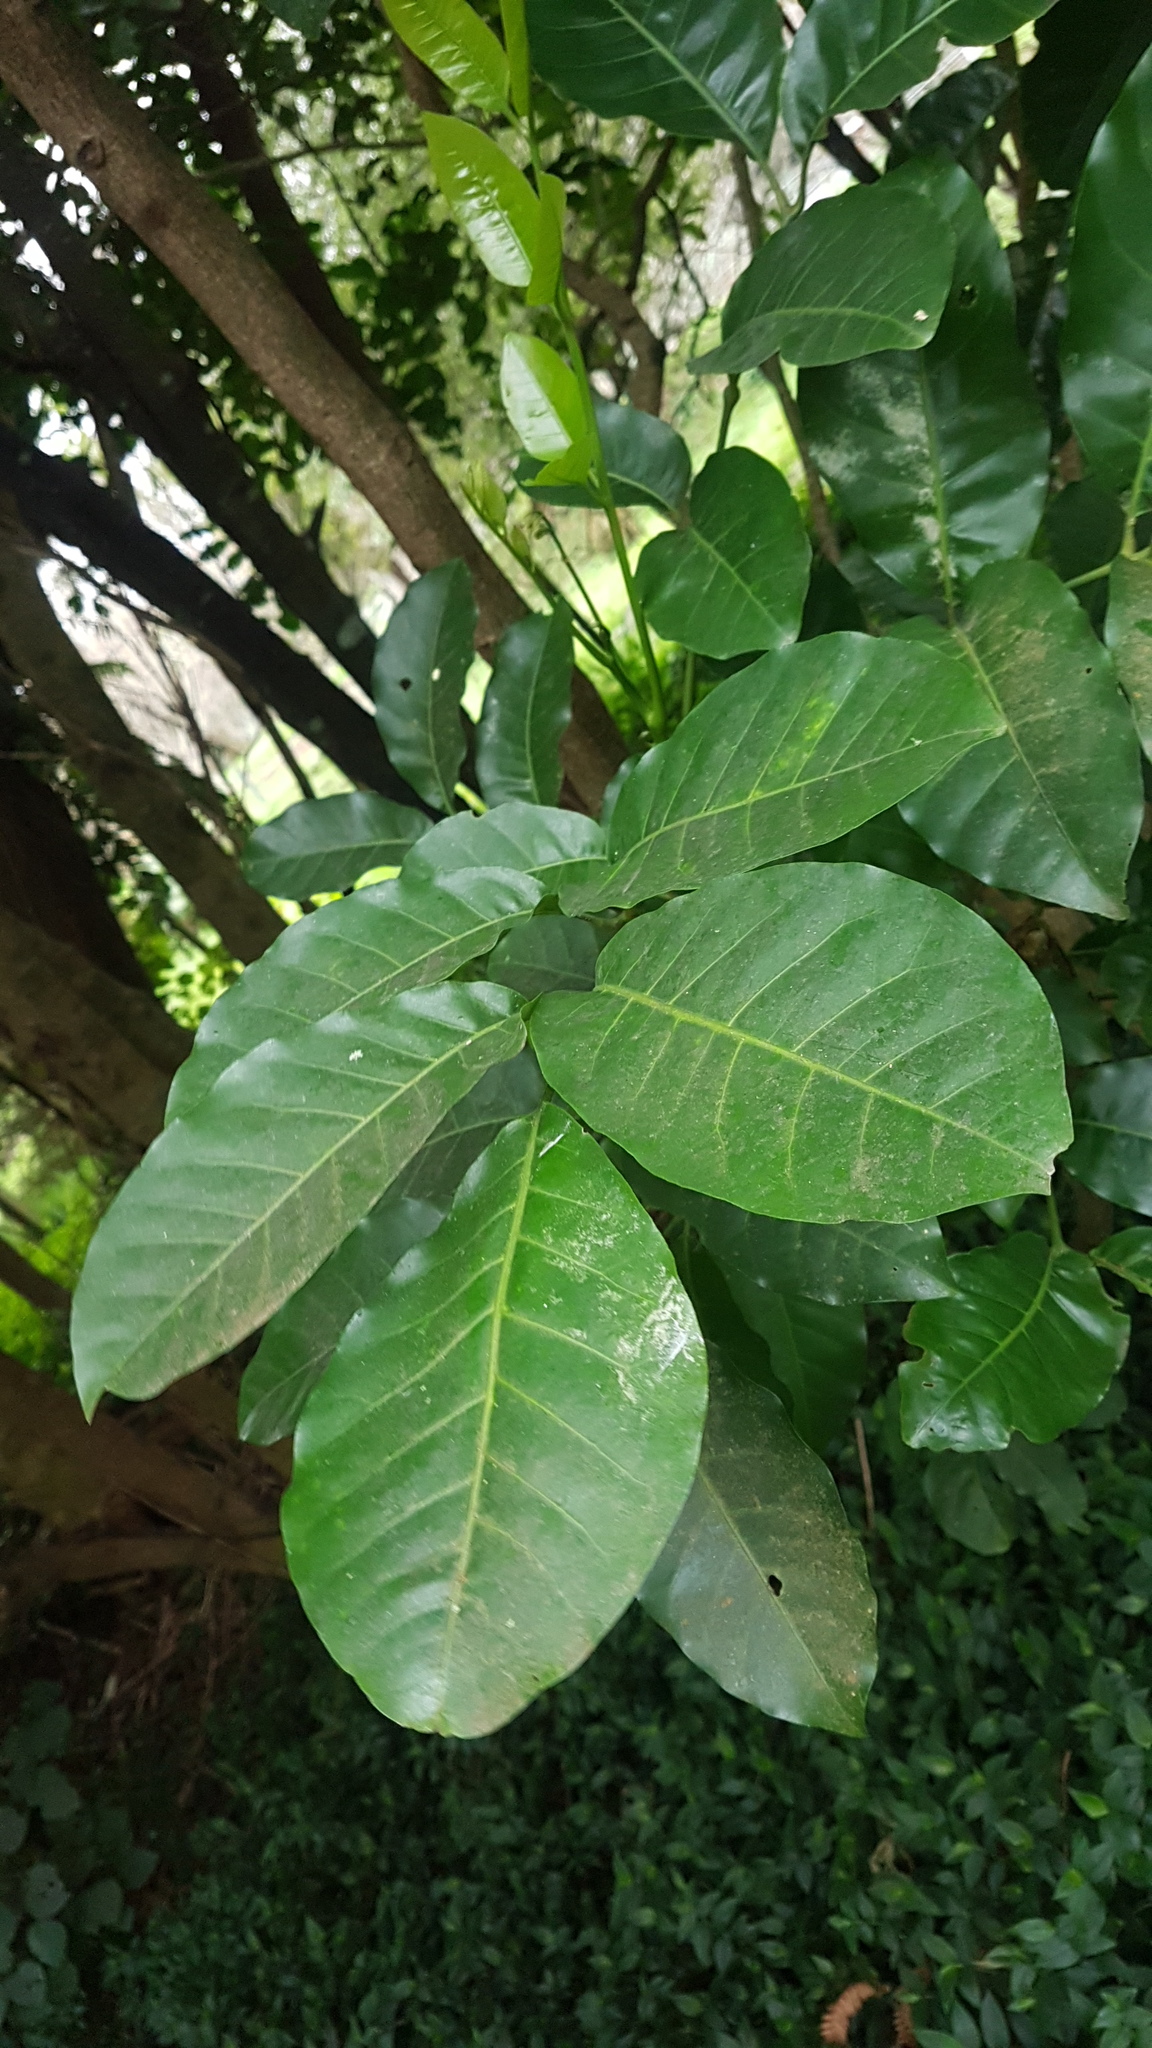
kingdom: Plantae
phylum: Tracheophyta
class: Magnoliopsida
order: Sapindales
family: Meliaceae
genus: Didymocheton
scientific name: Didymocheton spectabilis
